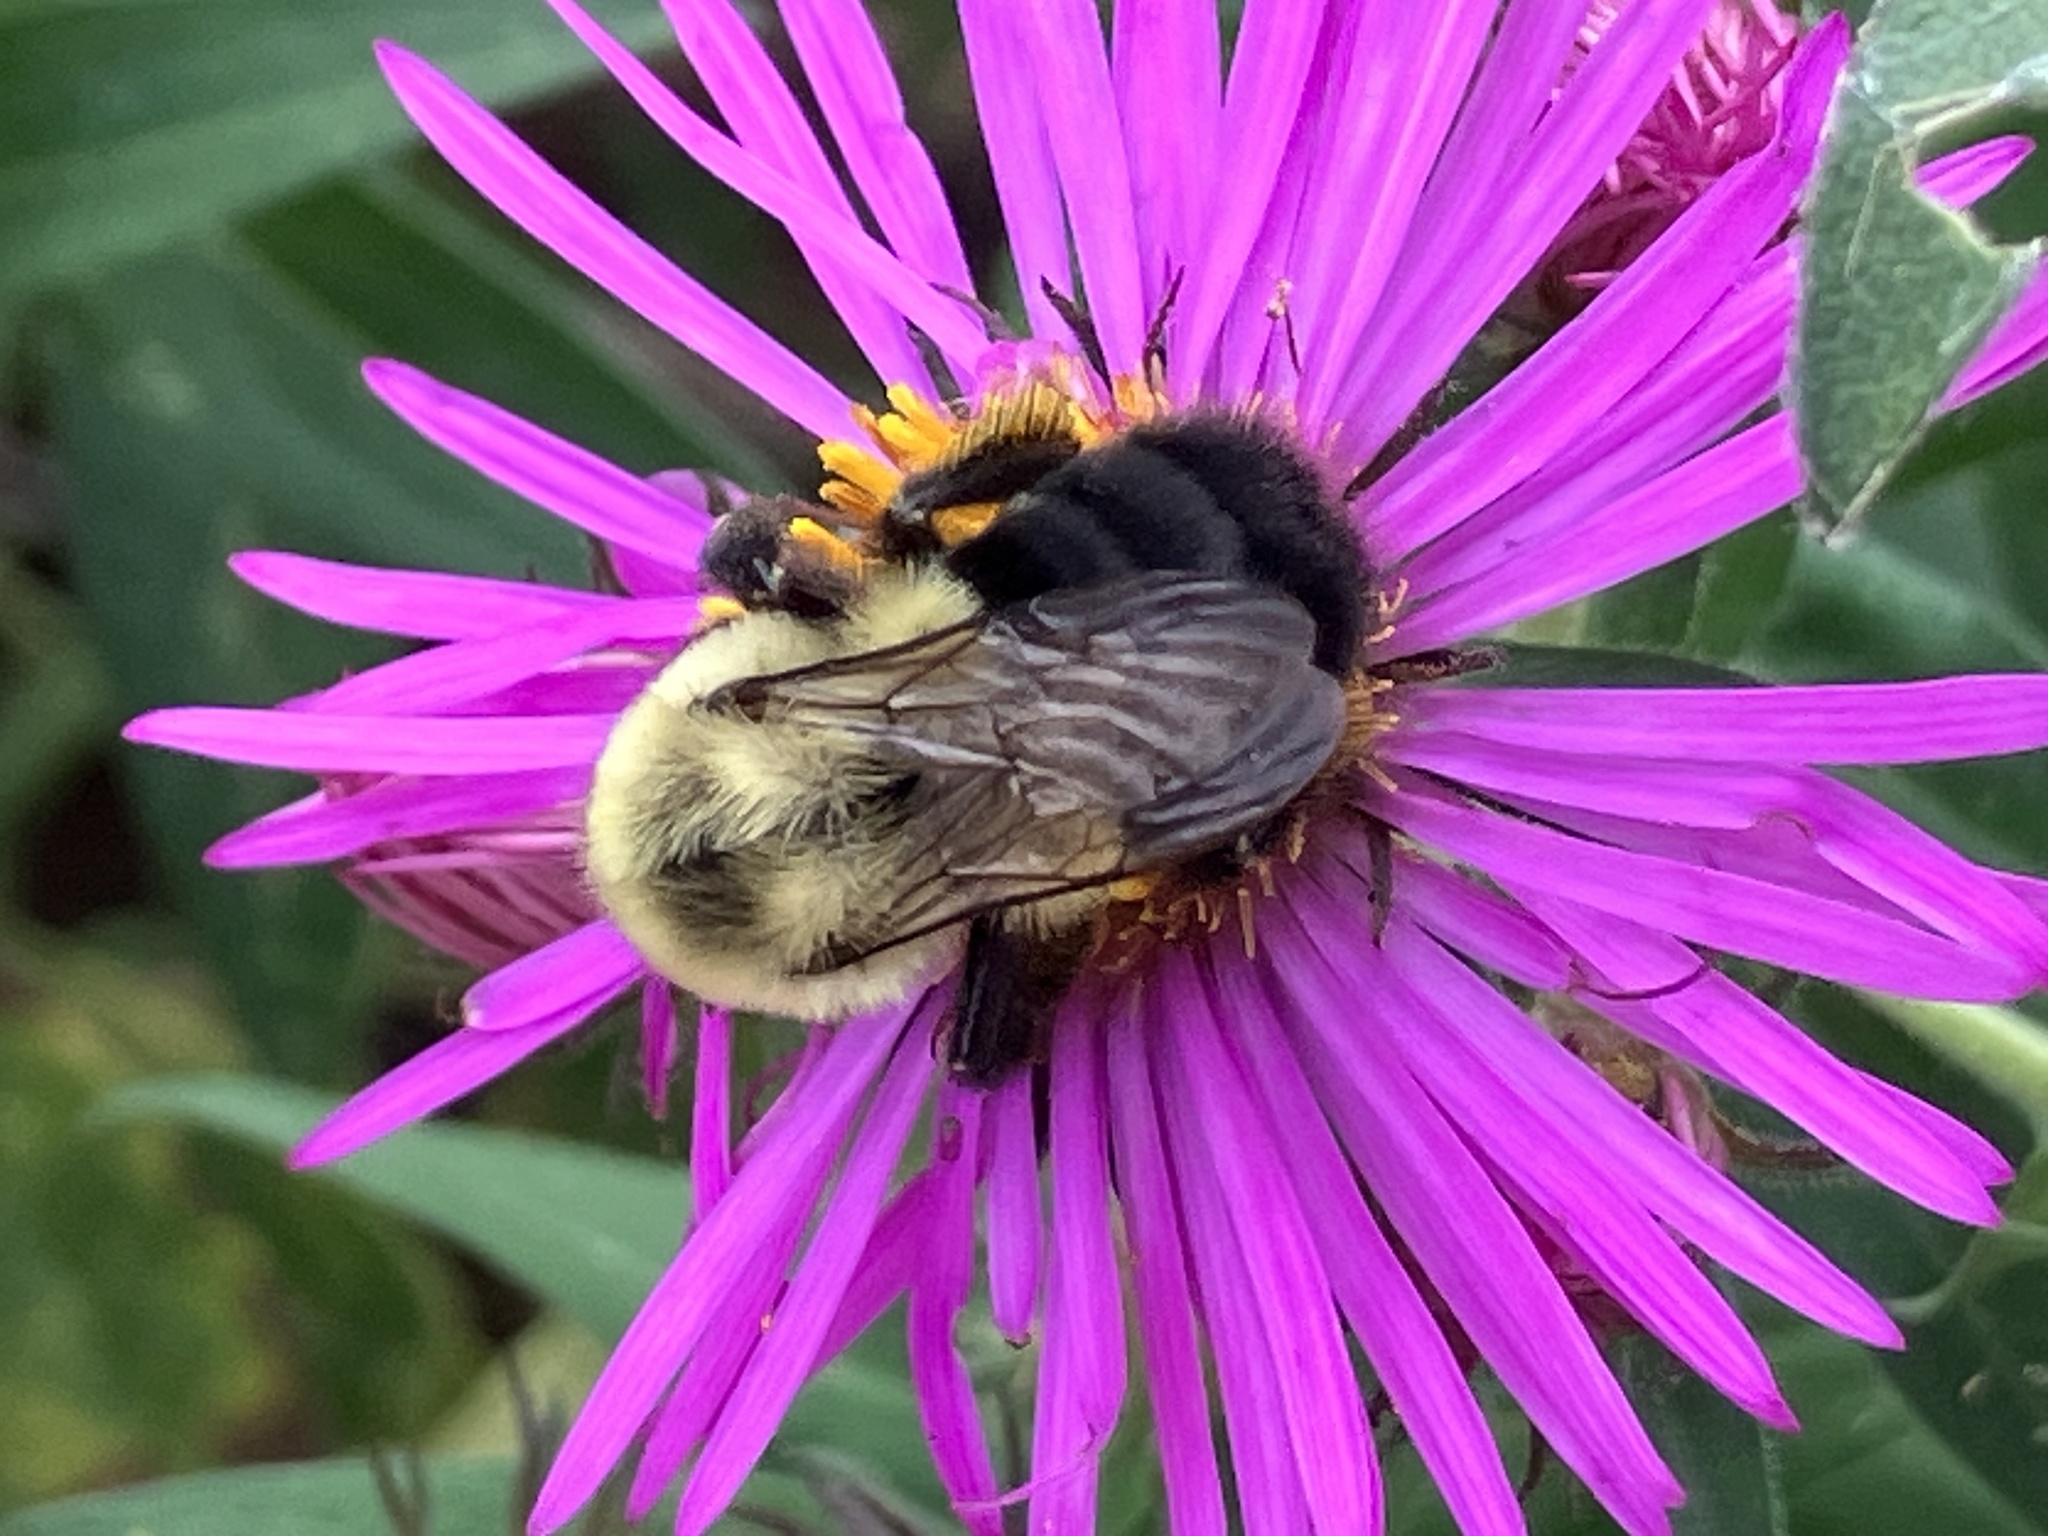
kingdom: Animalia
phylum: Arthropoda
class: Insecta
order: Hymenoptera
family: Apidae
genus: Bombus
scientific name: Bombus impatiens
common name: Common eastern bumble bee
